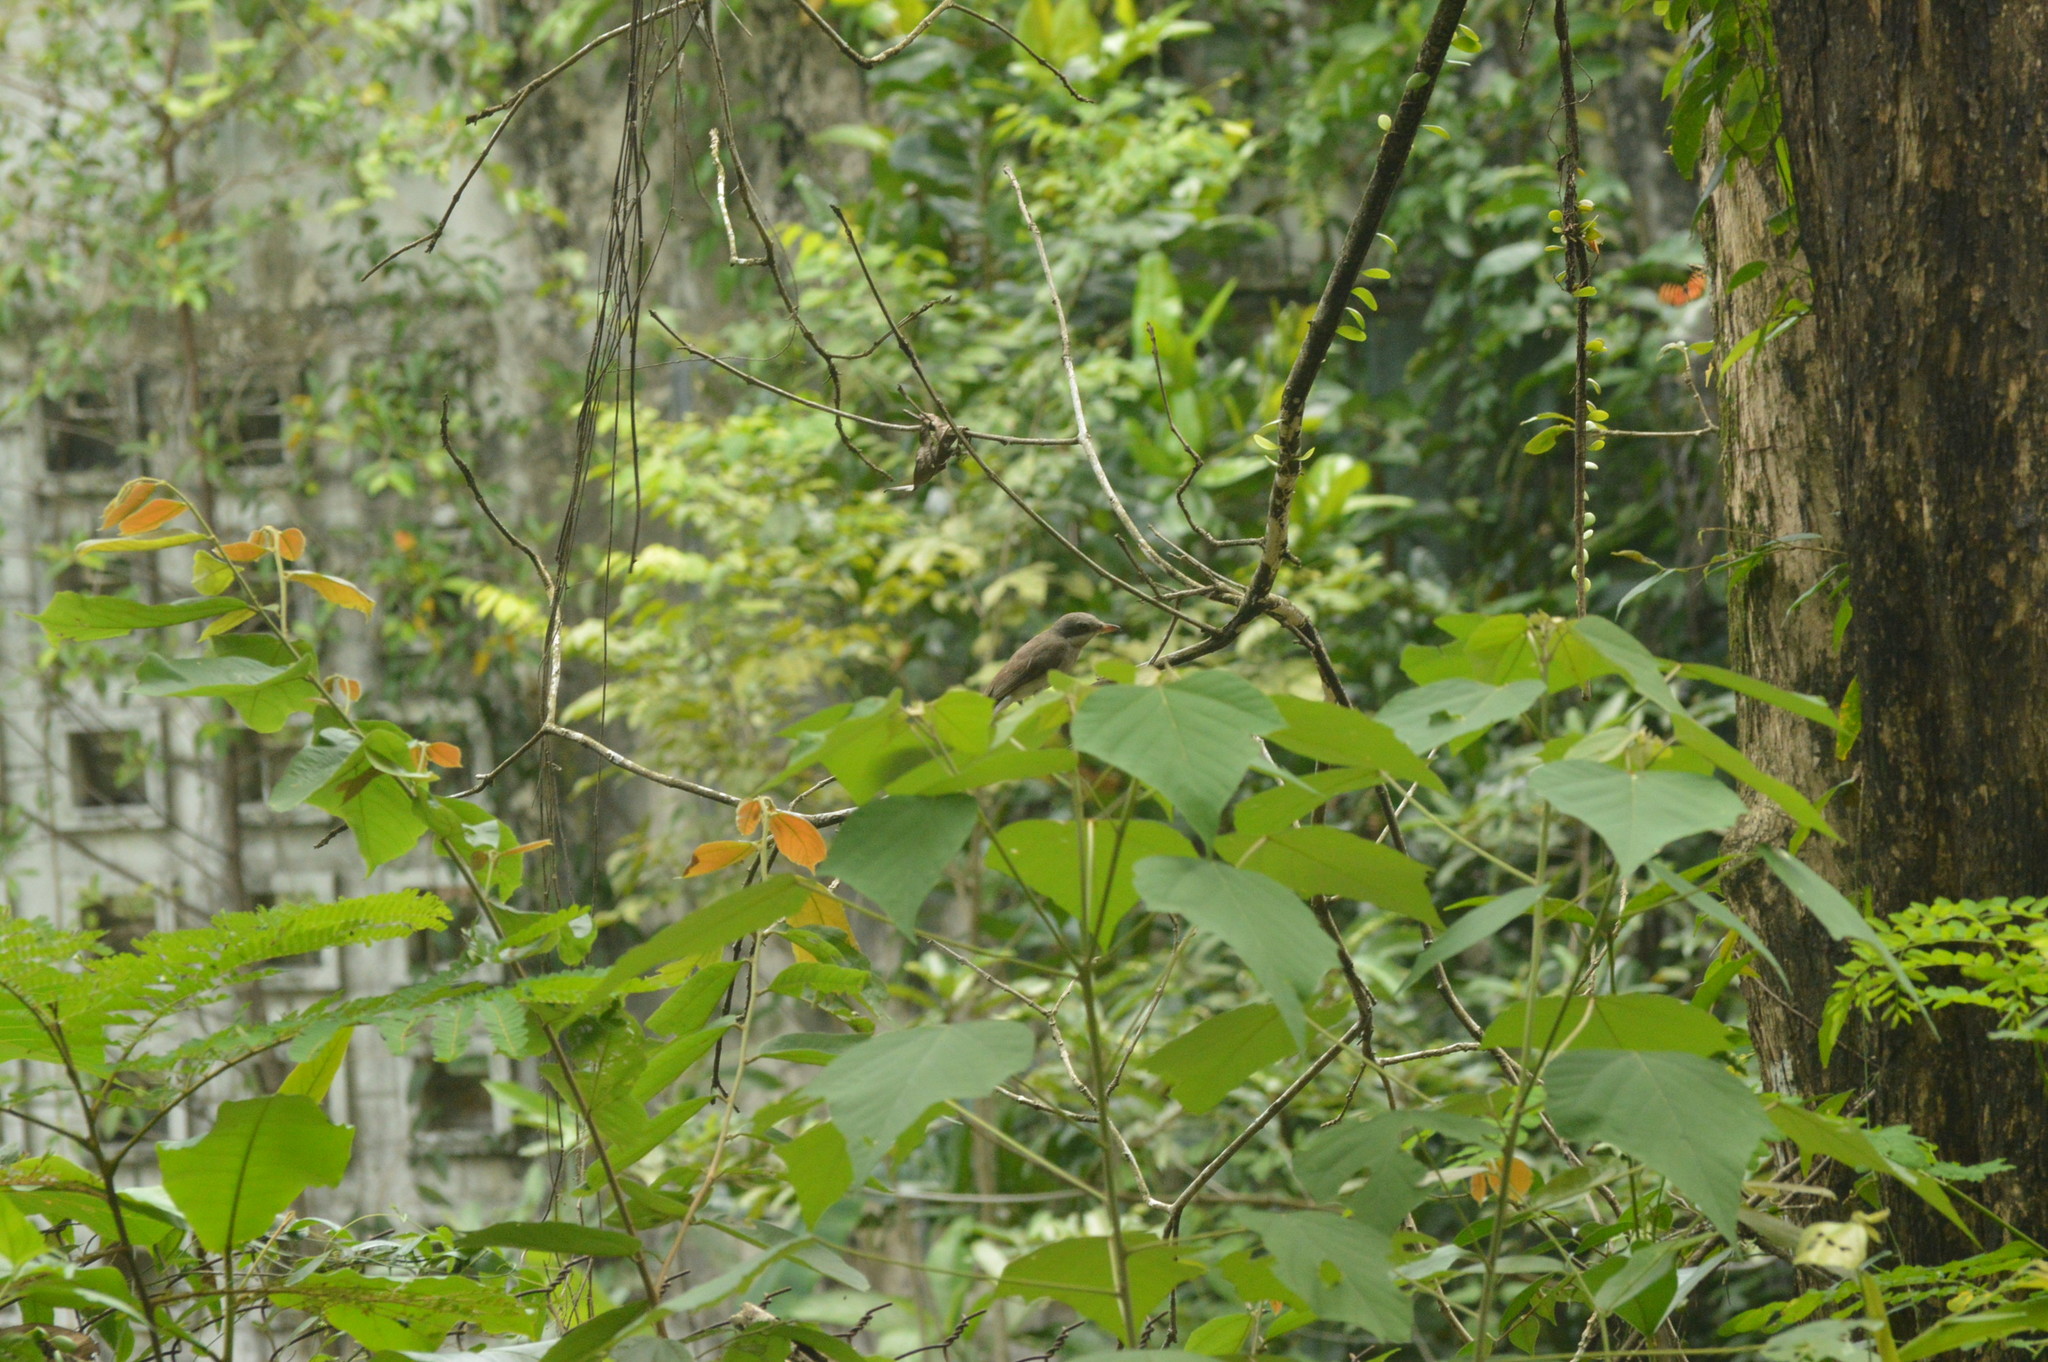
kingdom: Animalia
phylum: Chordata
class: Aves
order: Passeriformes
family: Tephrodornithidae
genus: Tephrodornis
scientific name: Tephrodornis virgatus
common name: Large woodshrike
